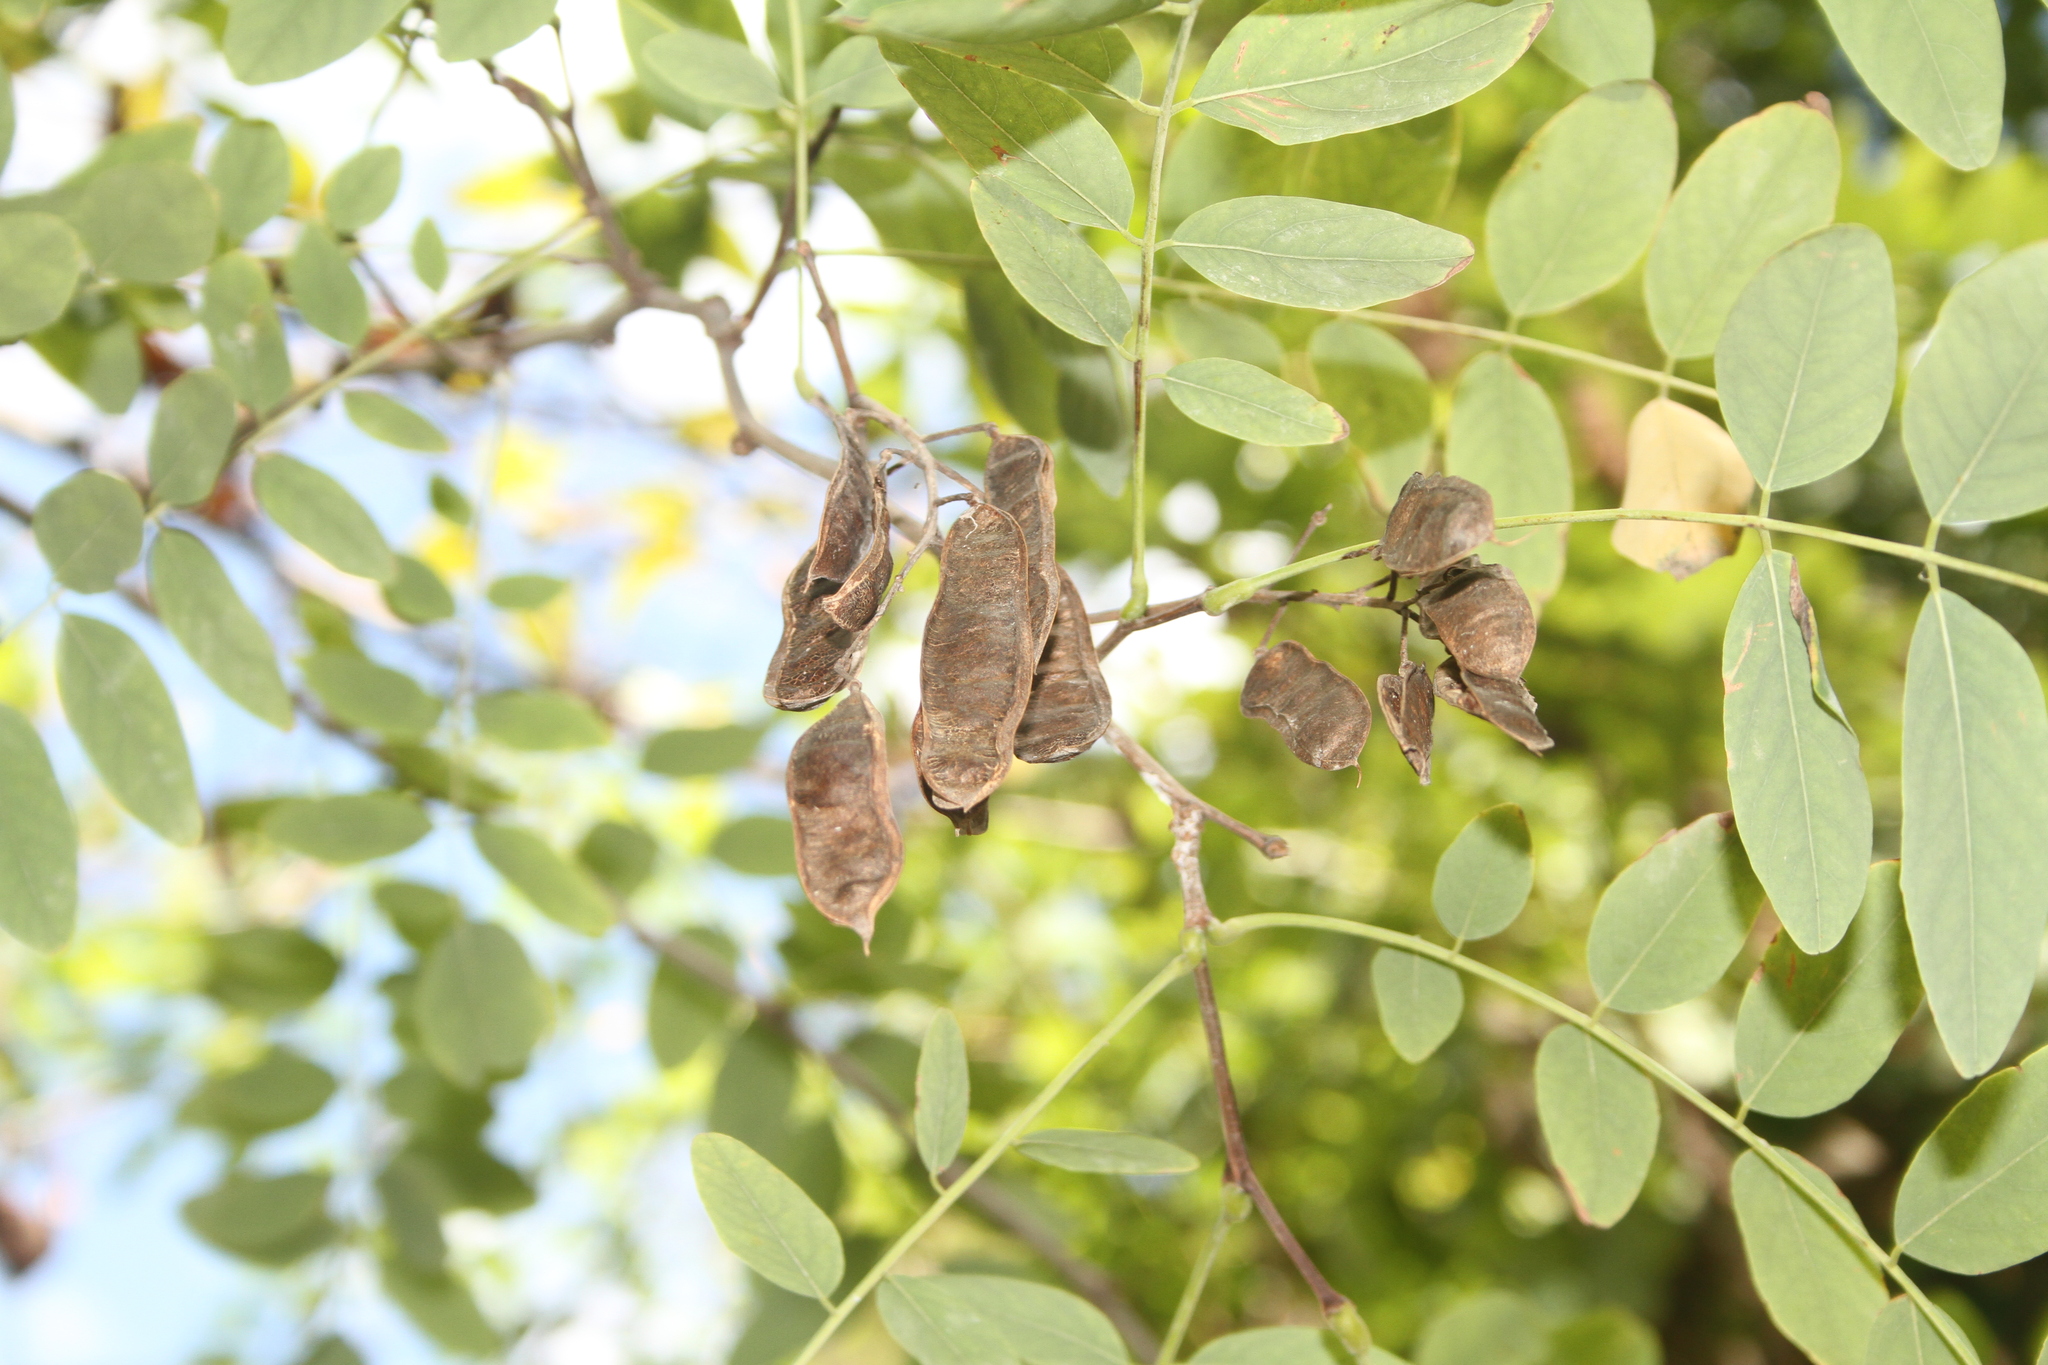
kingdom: Plantae
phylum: Tracheophyta
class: Magnoliopsida
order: Fabales
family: Fabaceae
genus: Robinia
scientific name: Robinia pseudoacacia
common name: Black locust
